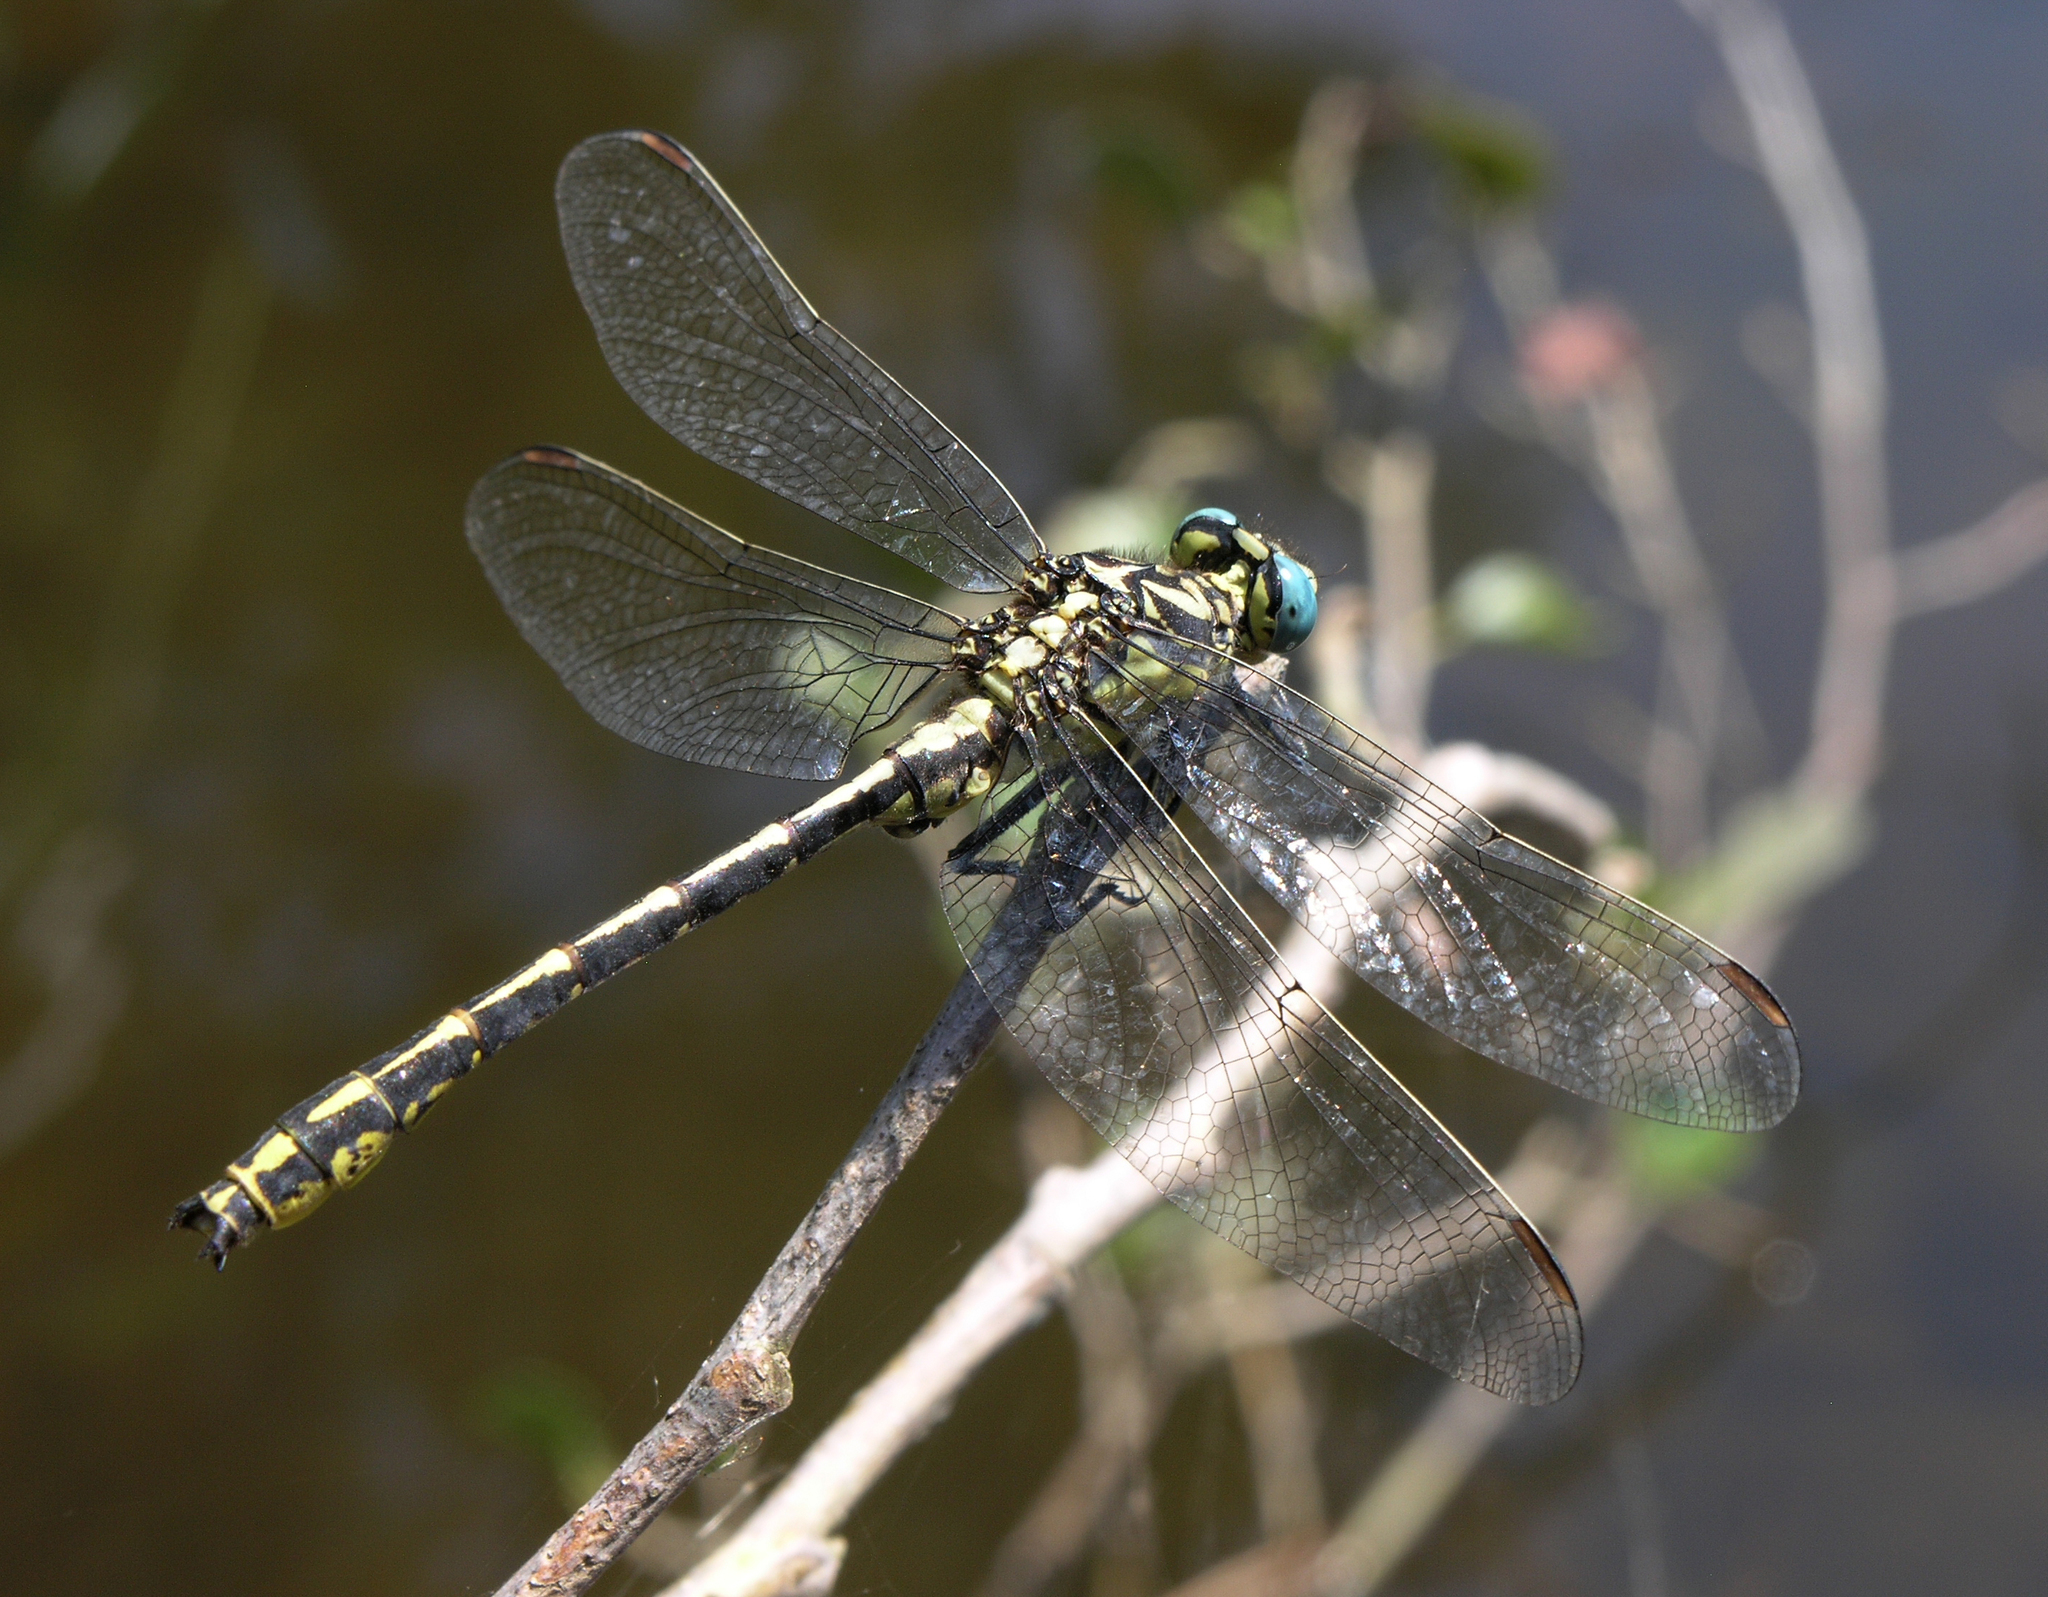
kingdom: Animalia
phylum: Arthropoda
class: Insecta
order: Odonata
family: Gomphidae
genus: Gomphus
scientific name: Gomphus graslinii
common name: Pronged clubtail
